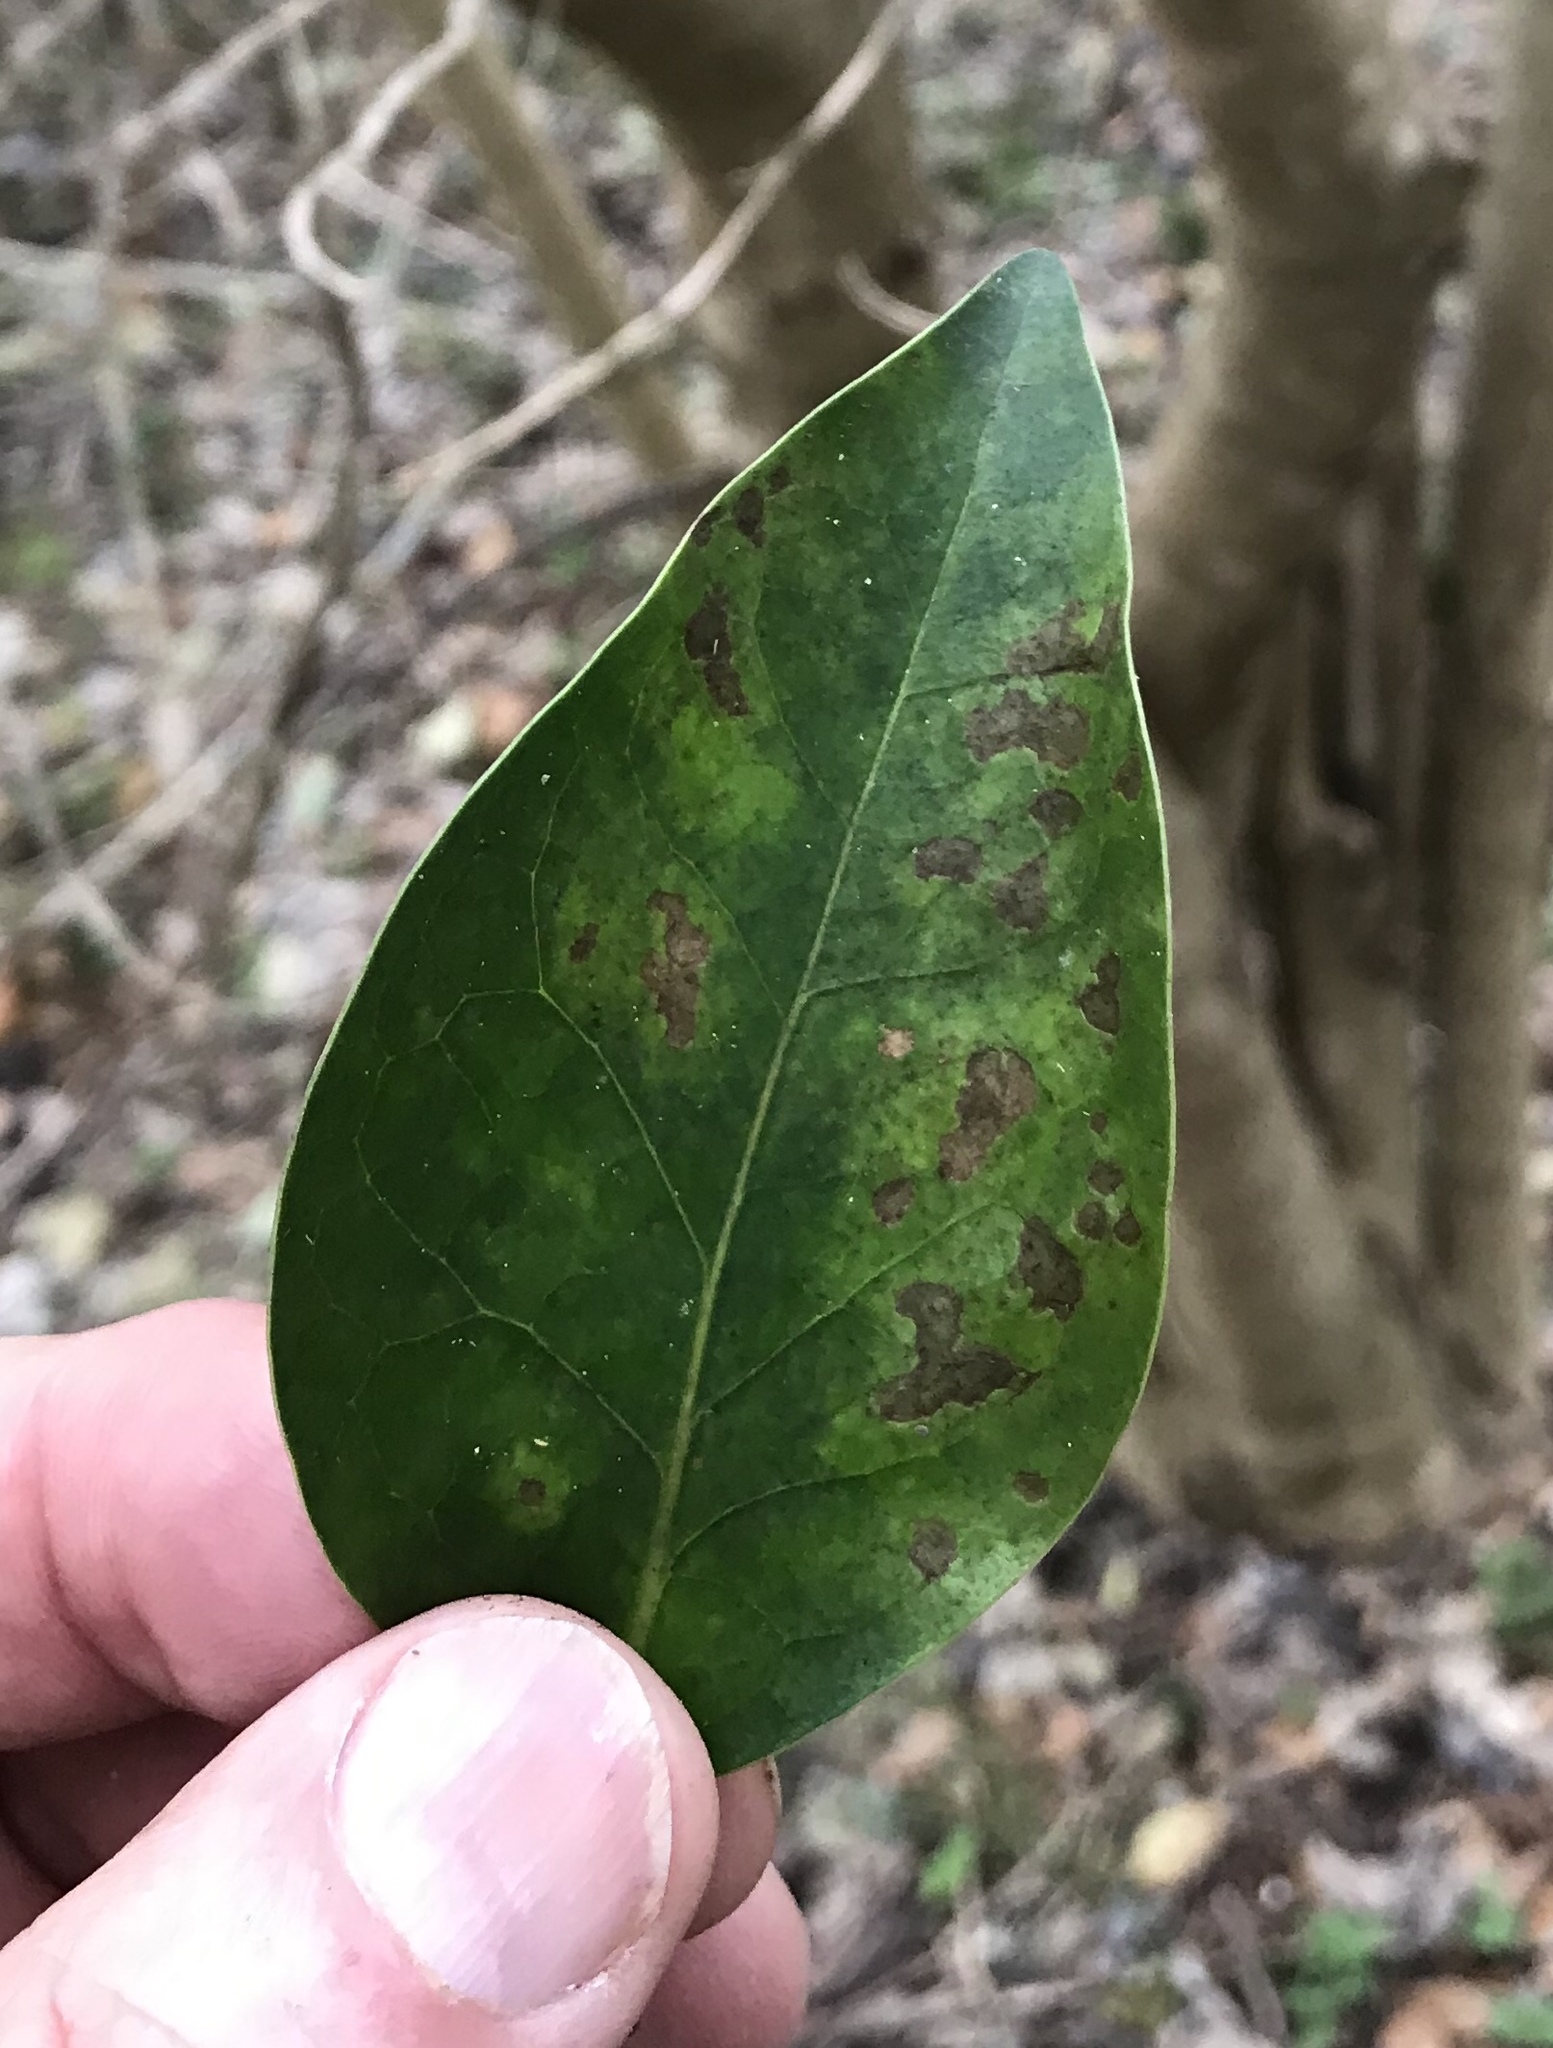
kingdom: Plantae
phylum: Tracheophyta
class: Magnoliopsida
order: Lamiales
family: Oleaceae
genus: Ligustrum
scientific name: Ligustrum lucidum
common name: Glossy privet
